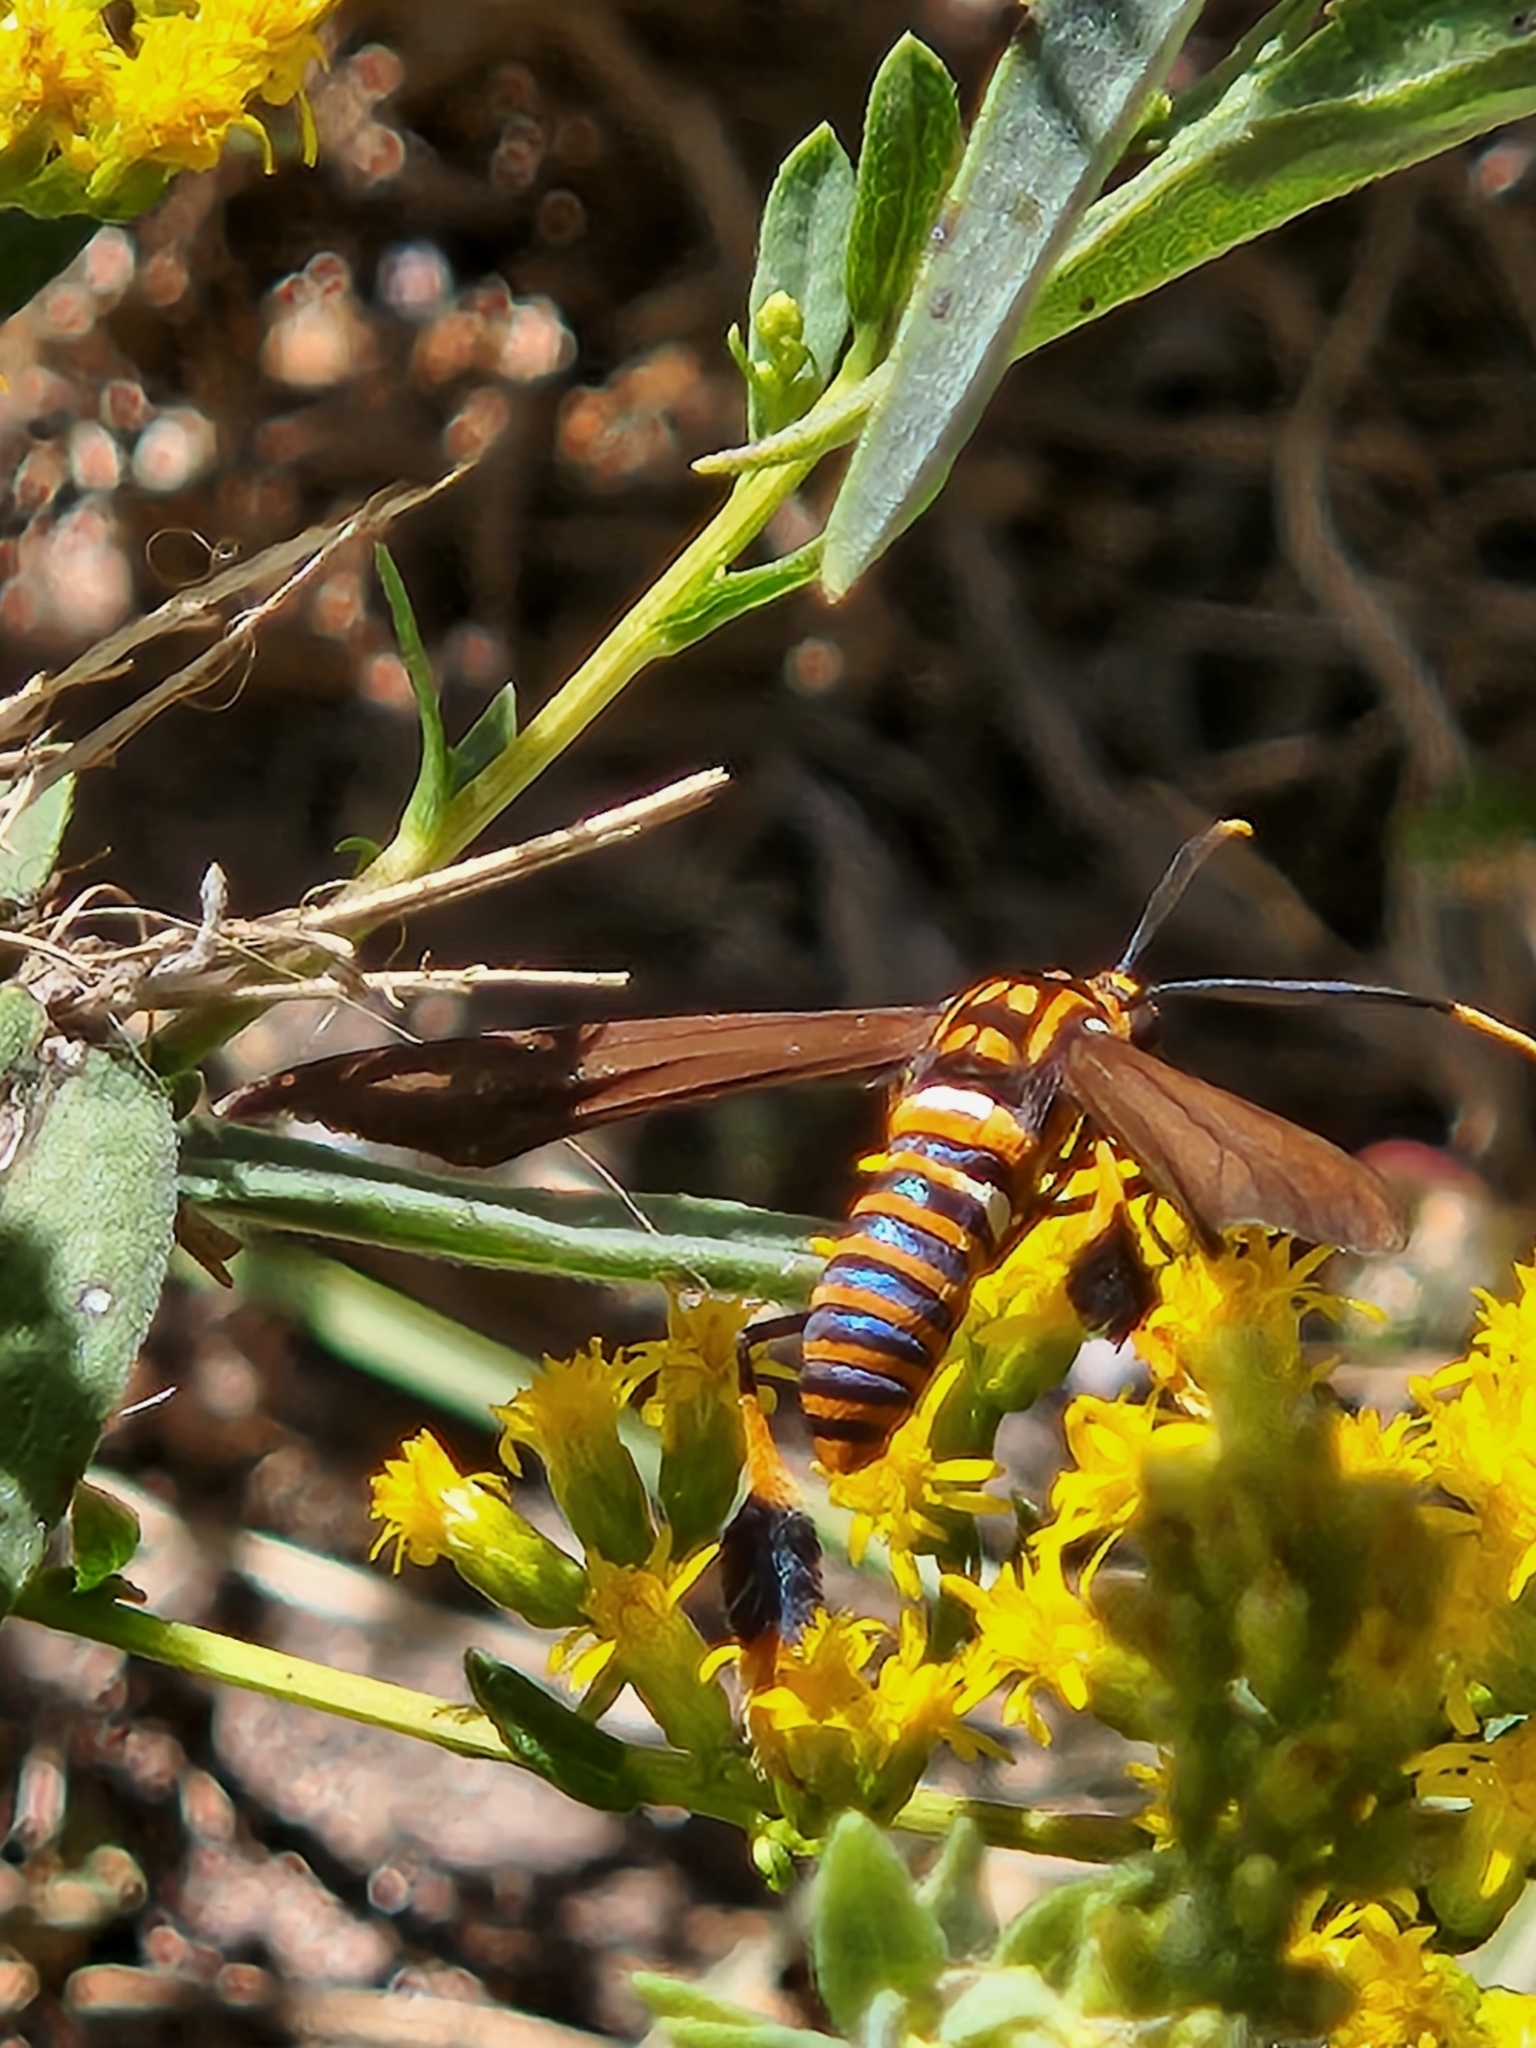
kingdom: Animalia
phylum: Arthropoda
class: Insecta
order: Lepidoptera
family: Erebidae
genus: Horama
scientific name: Horama panthalon
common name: Texas wasp moth
